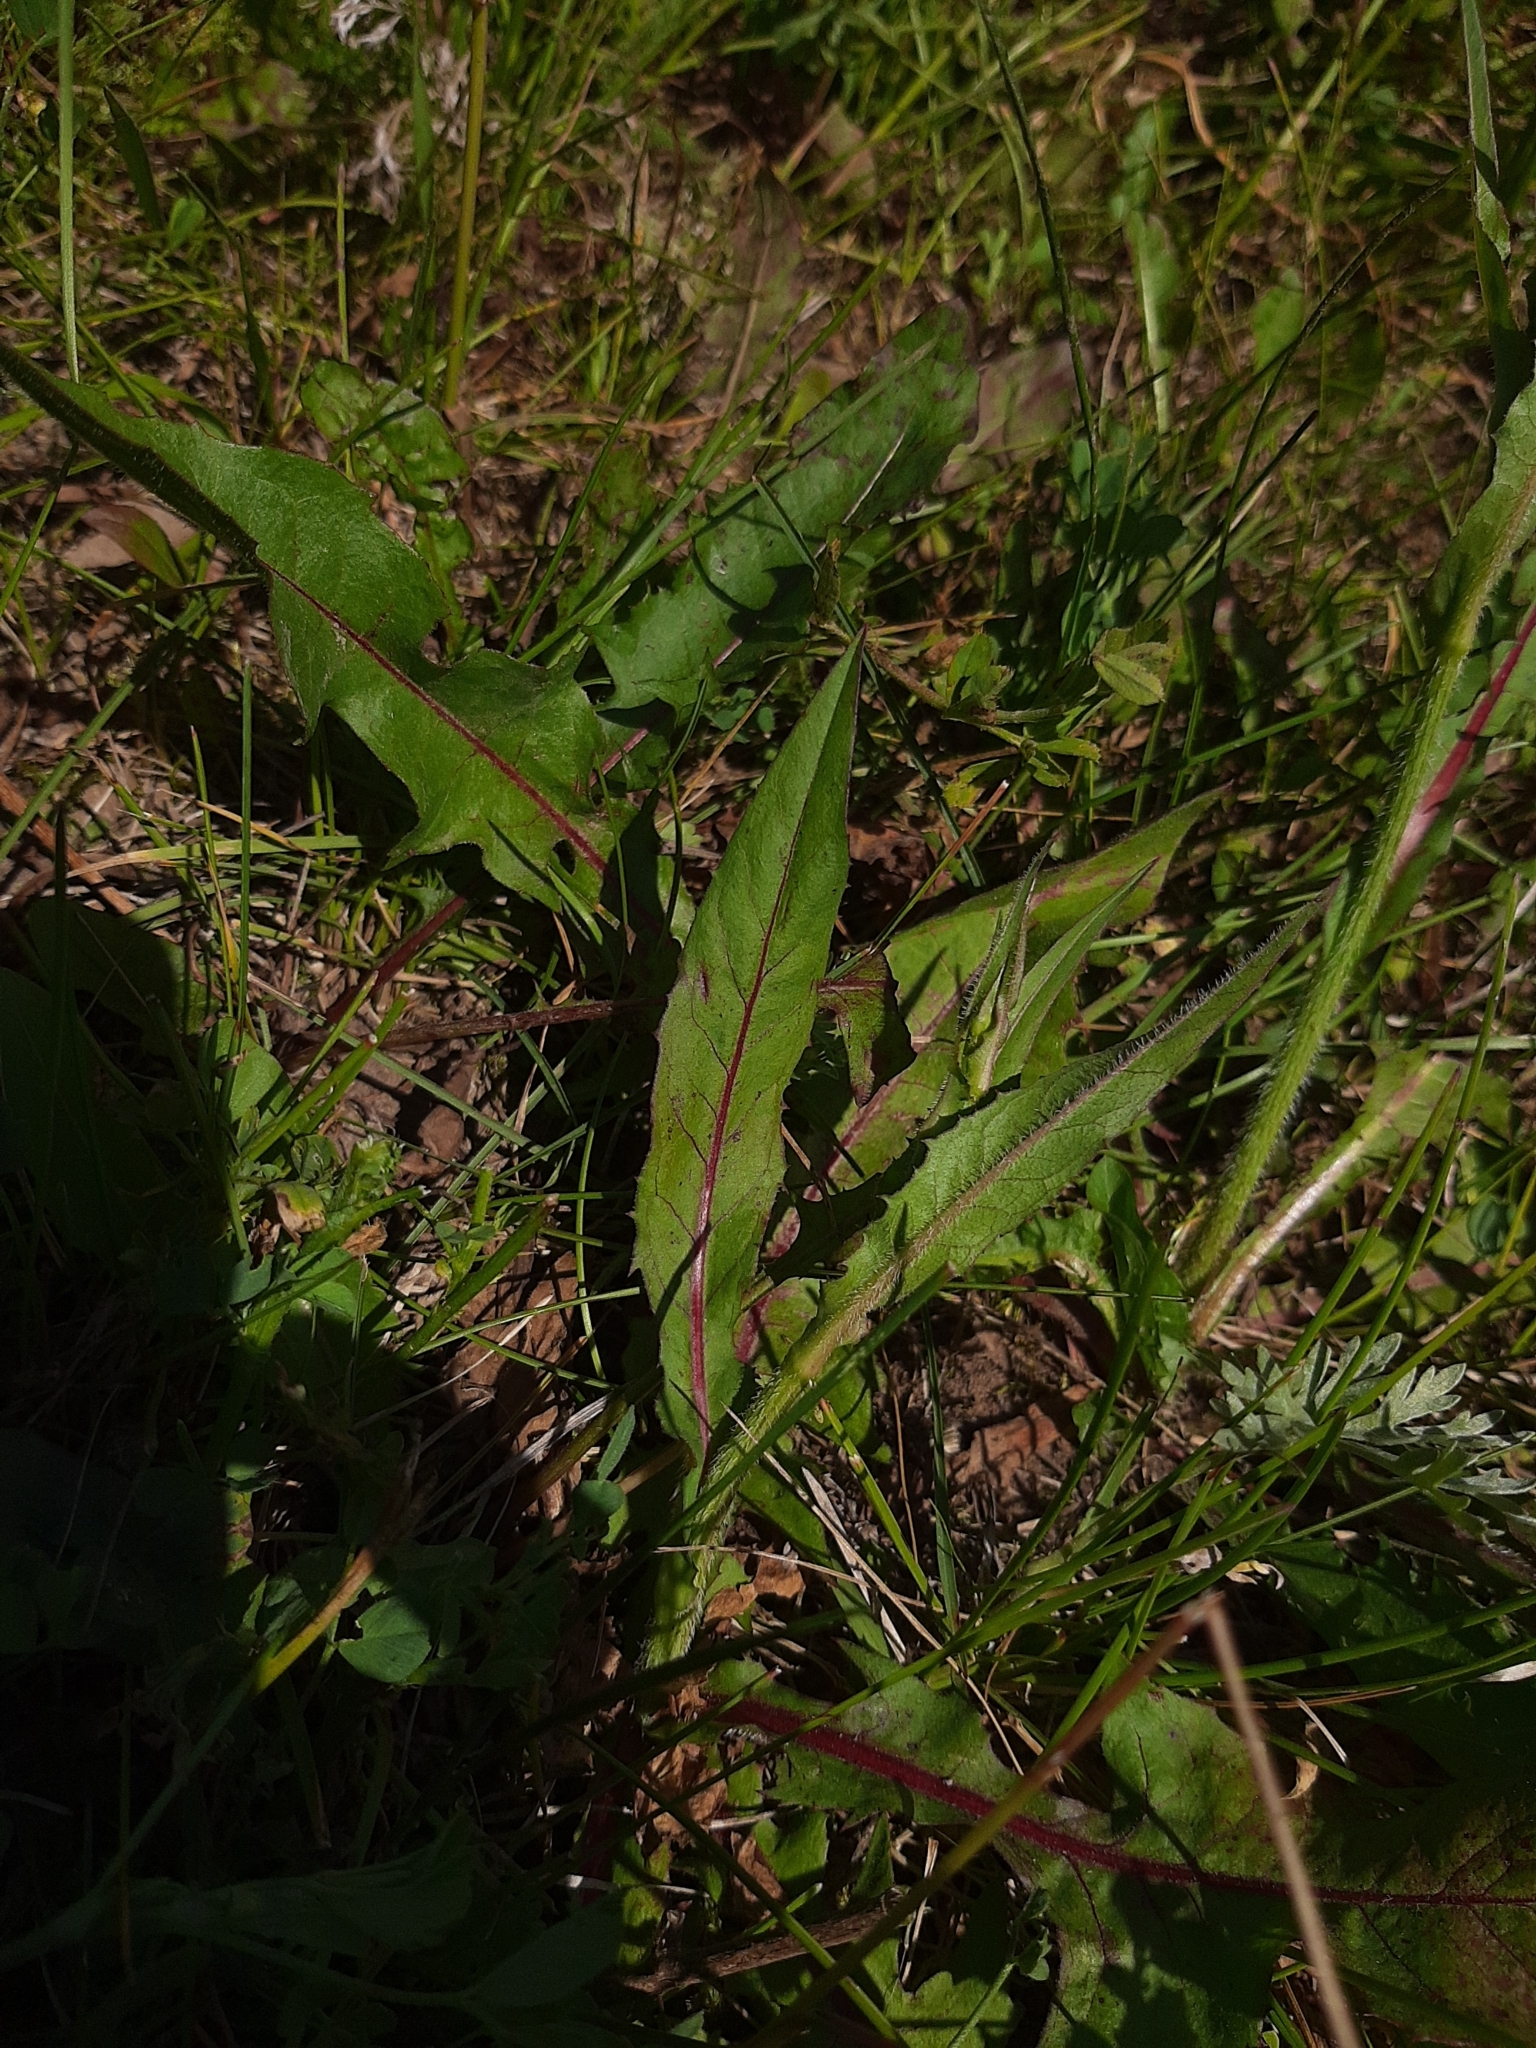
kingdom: Plantae
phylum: Tracheophyta
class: Magnoliopsida
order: Asterales
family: Asteraceae
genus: Cichorium
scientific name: Cichorium intybus
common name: Chicory
